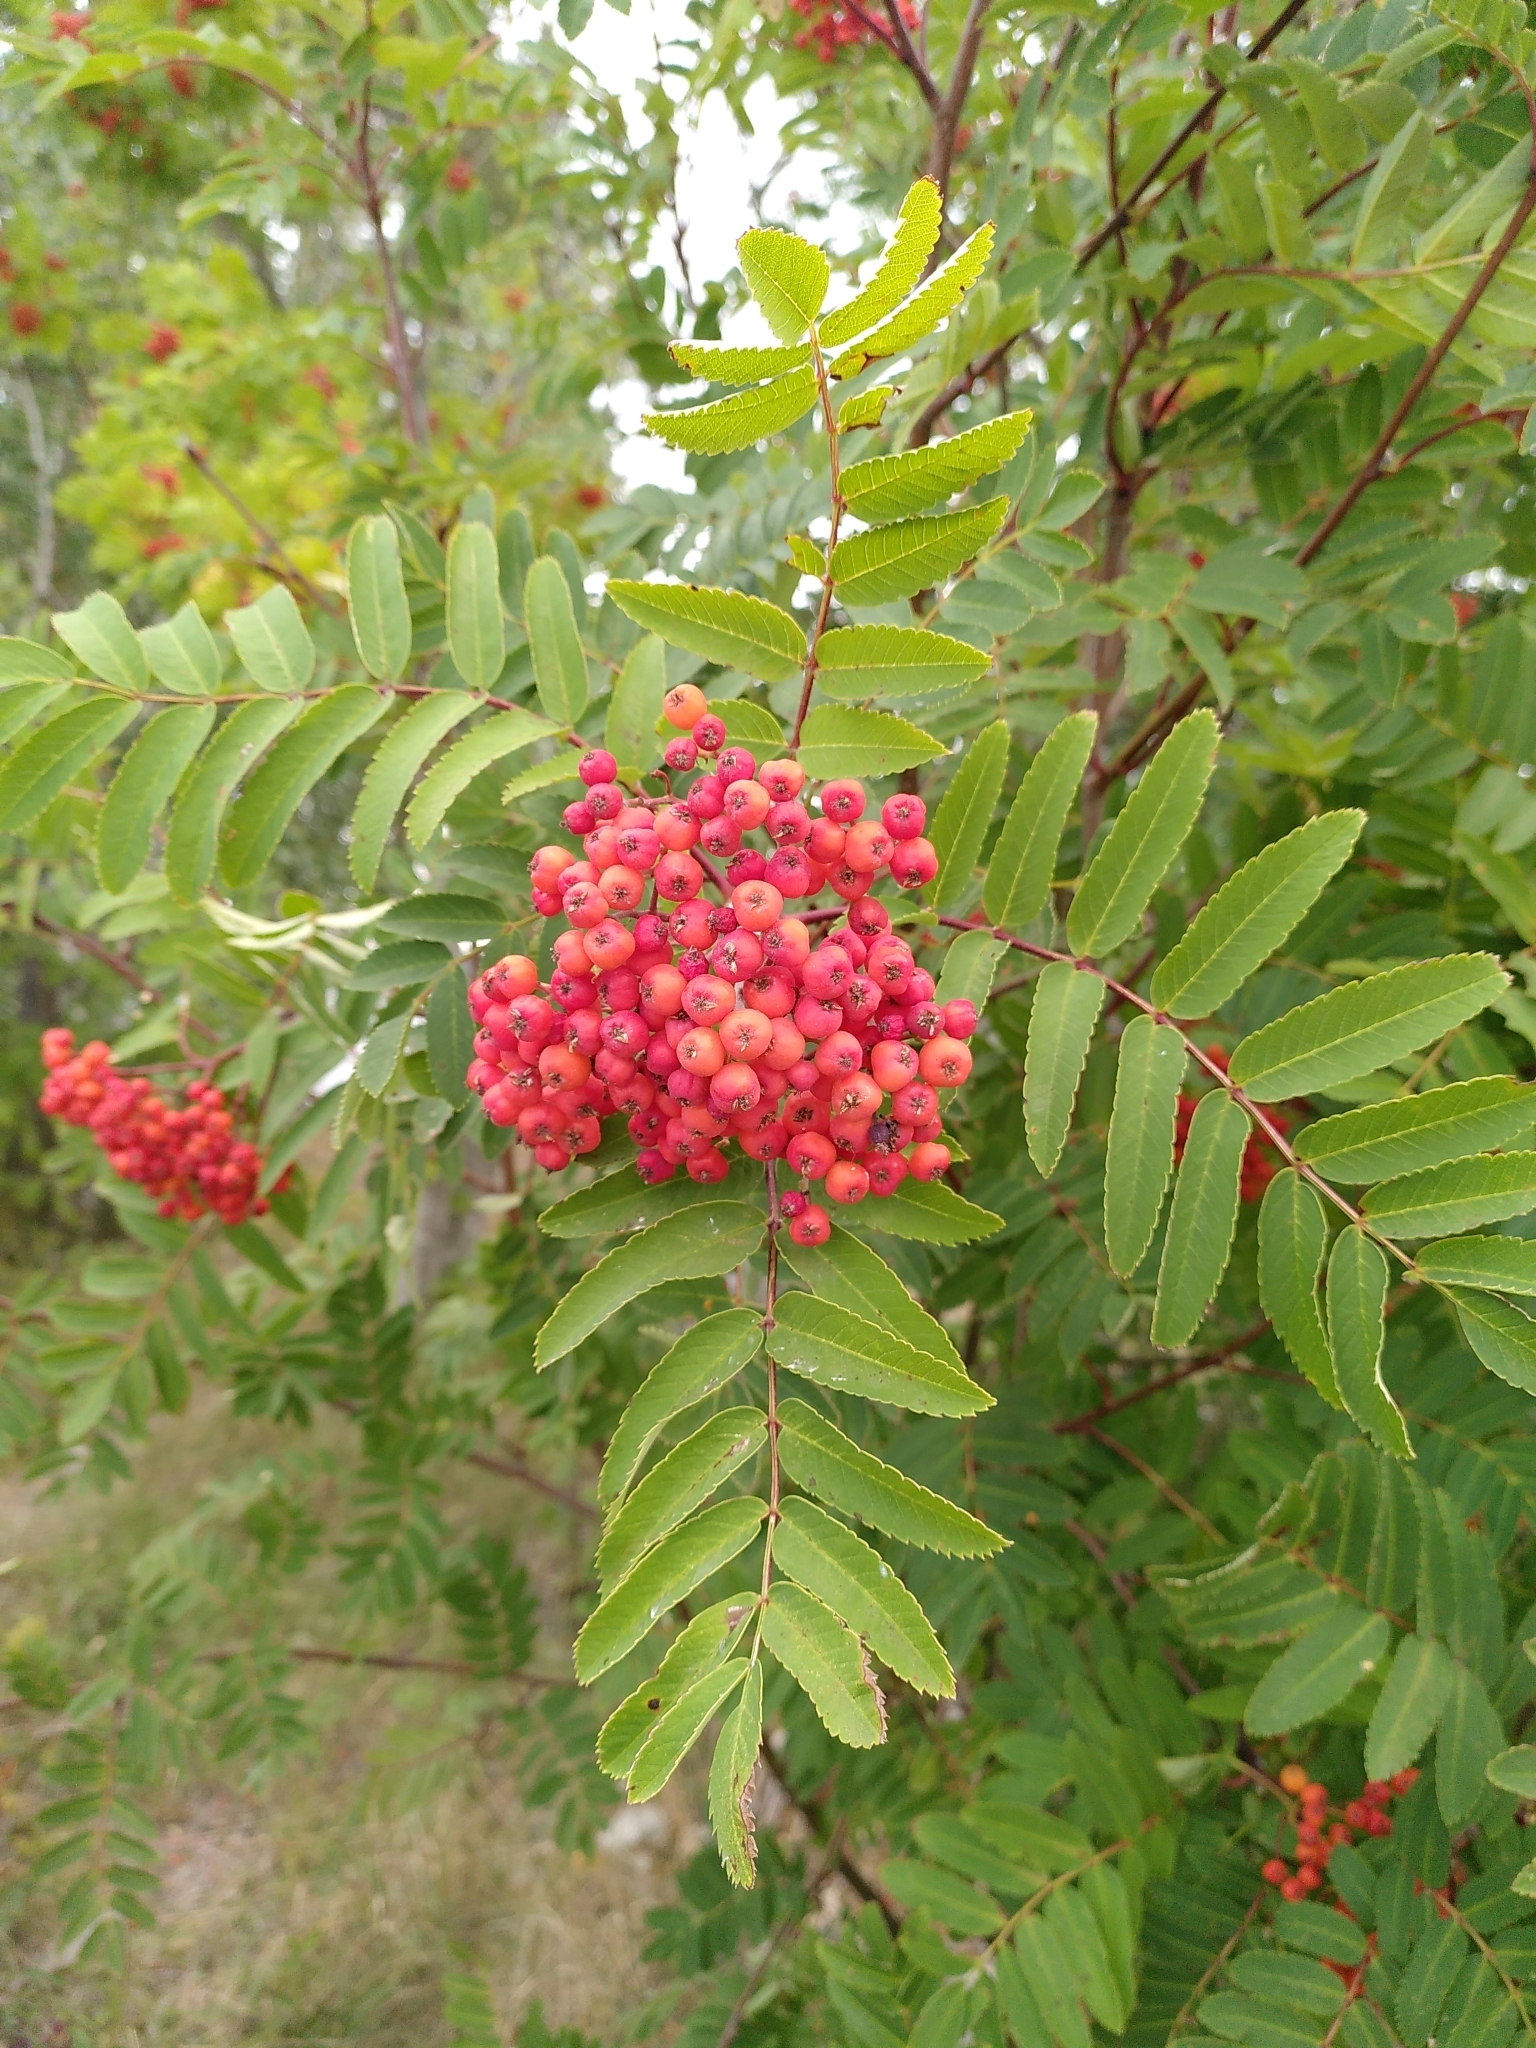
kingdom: Plantae
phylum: Tracheophyta
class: Magnoliopsida
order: Rosales
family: Rosaceae
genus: Sorbus
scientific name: Sorbus aucuparia
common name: Rowan
